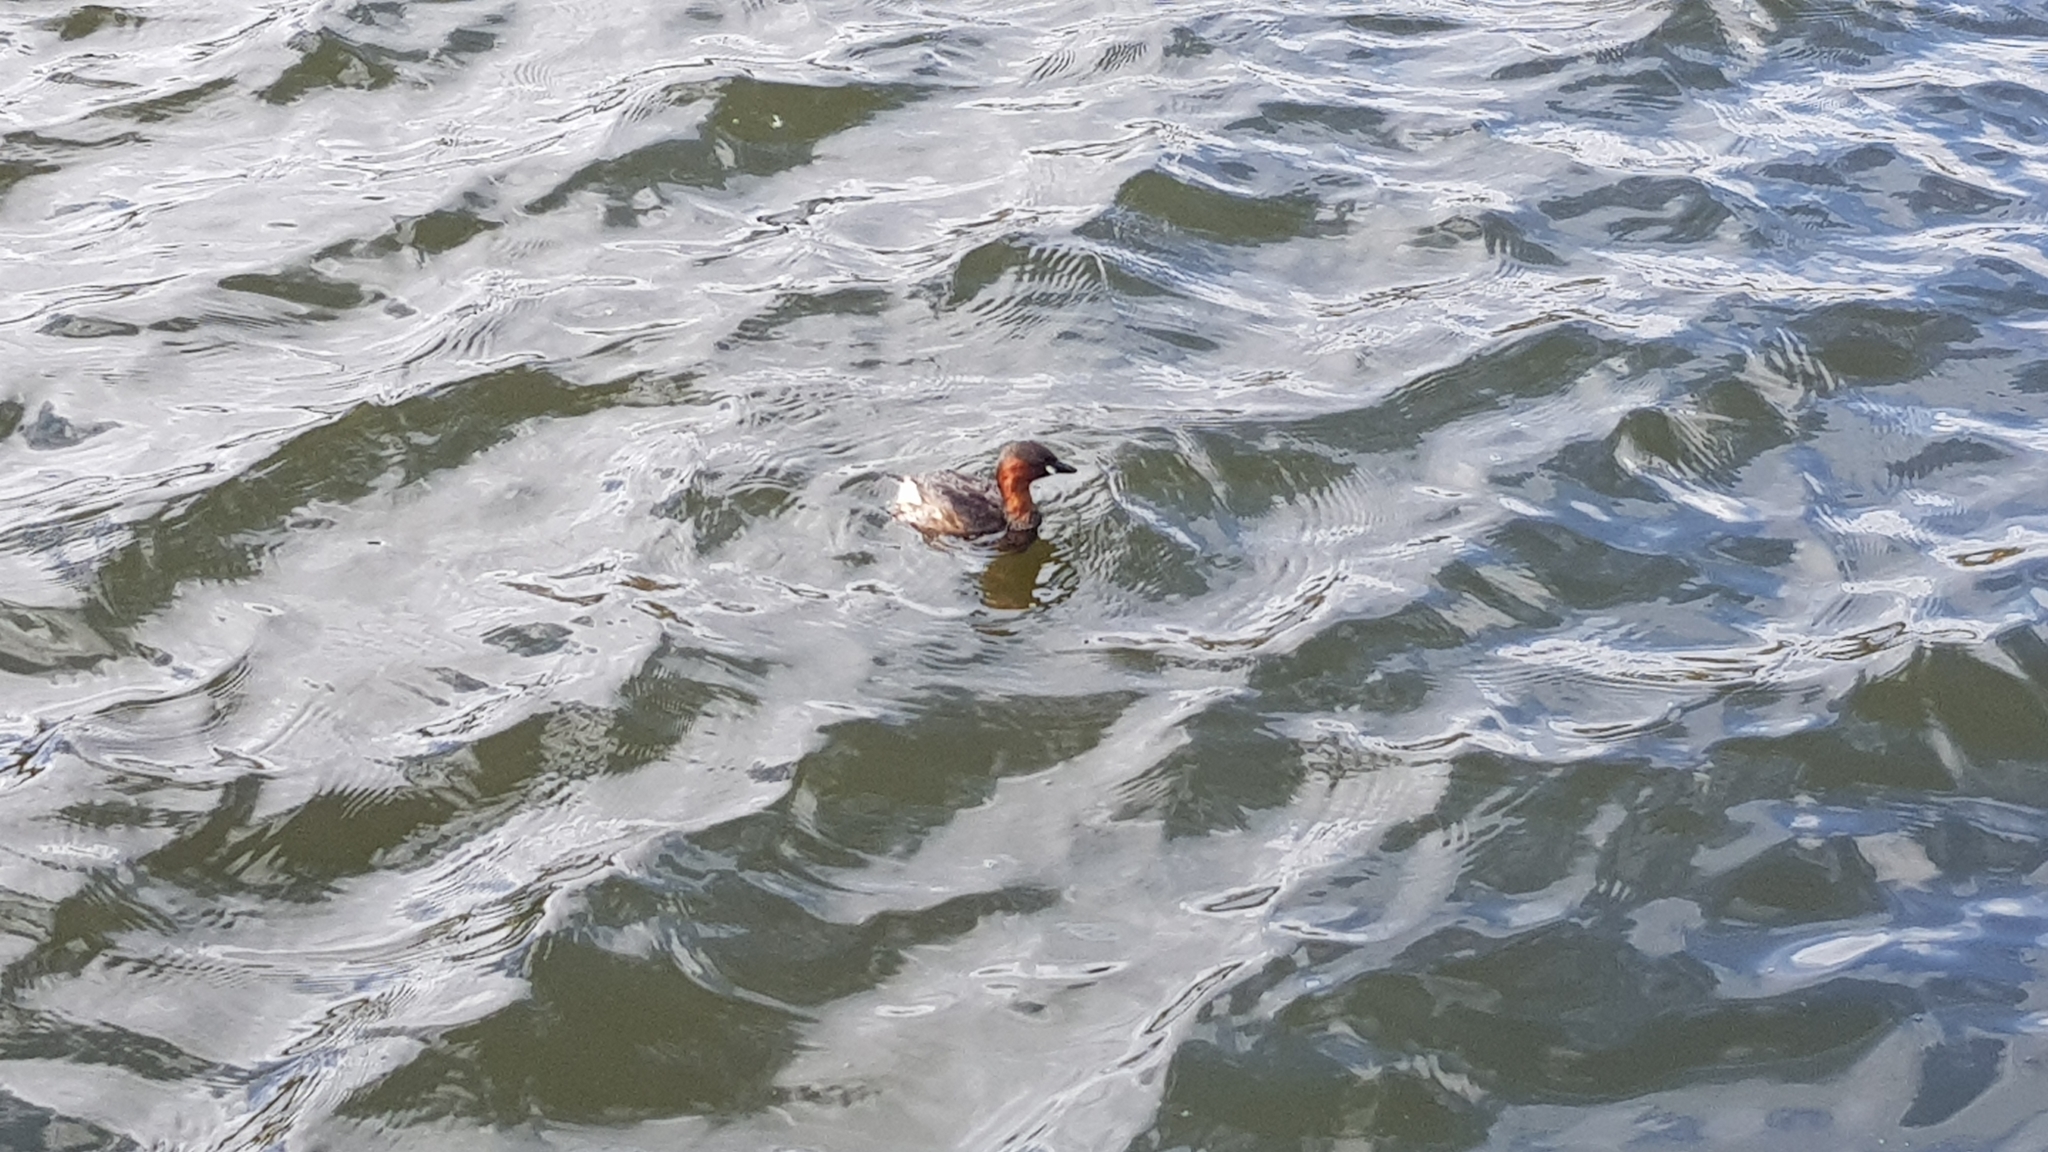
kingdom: Animalia
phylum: Chordata
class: Aves
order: Podicipediformes
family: Podicipedidae
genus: Tachybaptus
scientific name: Tachybaptus ruficollis
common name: Little grebe
